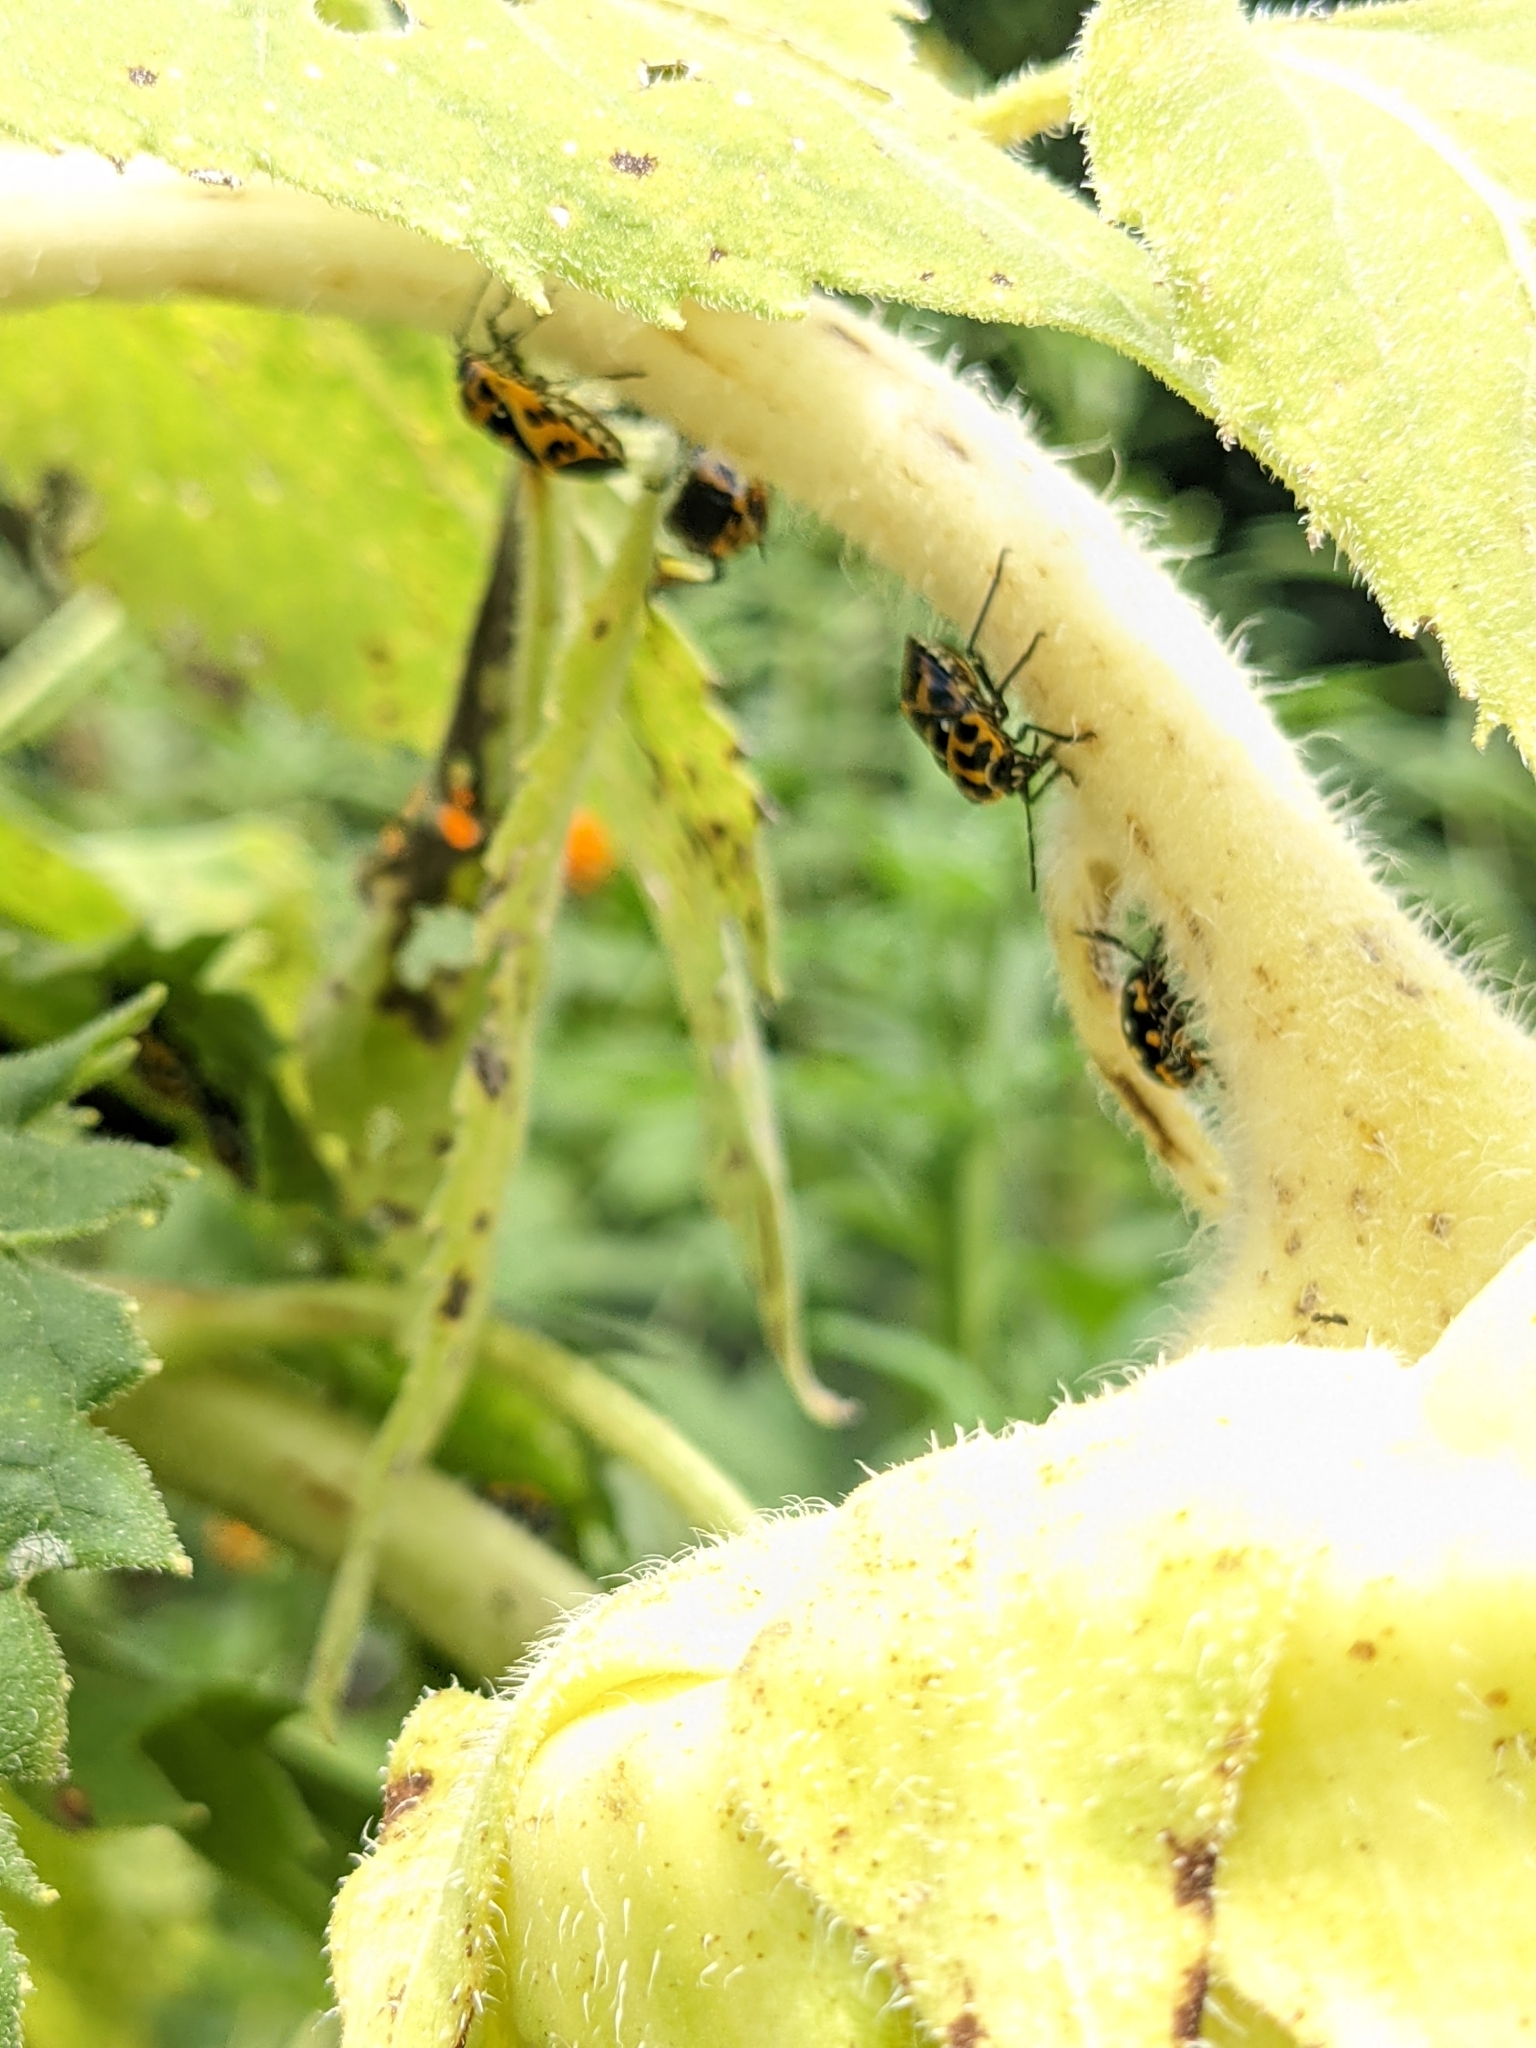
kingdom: Animalia
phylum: Arthropoda
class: Insecta
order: Hemiptera
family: Pentatomidae
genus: Murgantia
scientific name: Murgantia histrionica
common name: Harlequin bug
